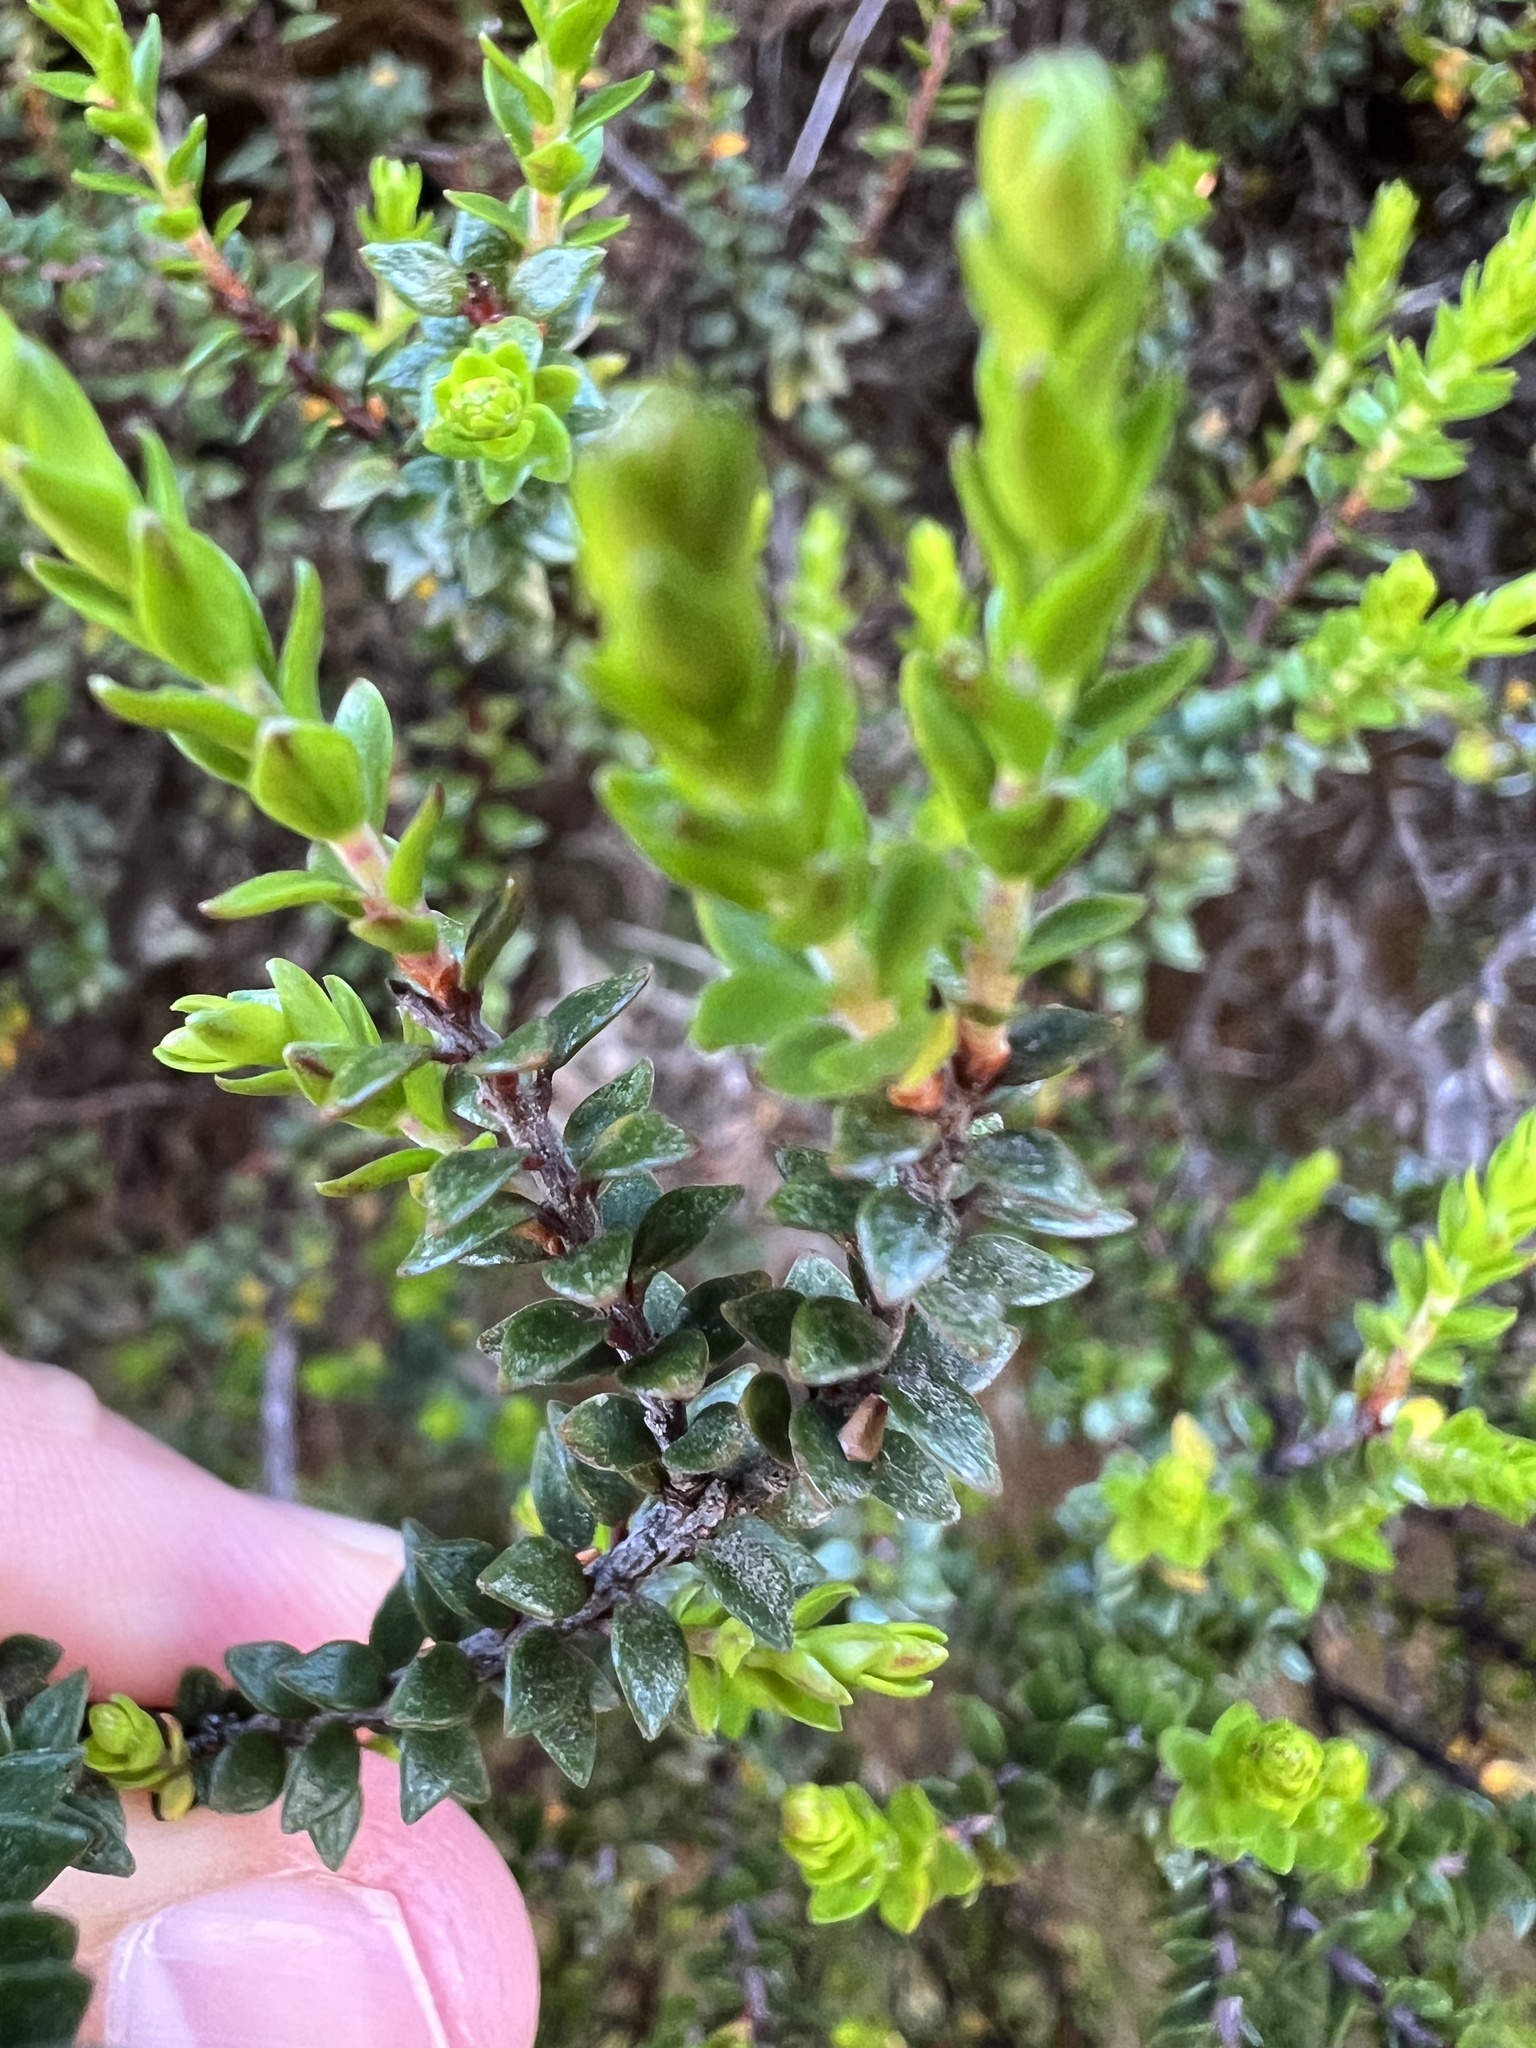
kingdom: Plantae
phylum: Tracheophyta
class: Magnoliopsida
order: Ericales
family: Ericaceae
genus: Epacris
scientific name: Epacris alpina
